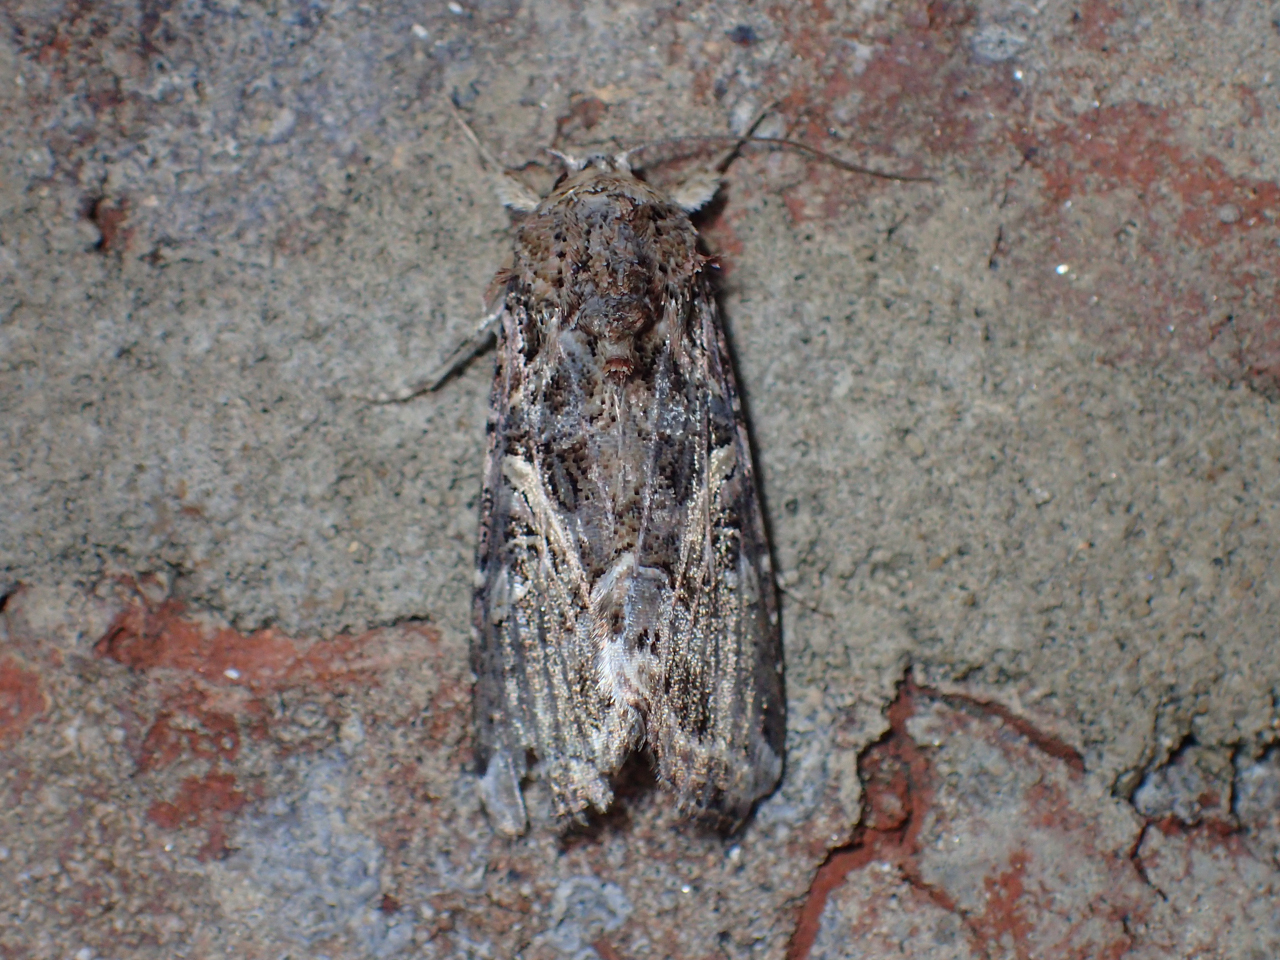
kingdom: Animalia
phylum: Arthropoda
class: Insecta
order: Lepidoptera
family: Noctuidae
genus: Spodoptera
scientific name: Spodoptera ornithogalli
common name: Yellow-striped armyworm
